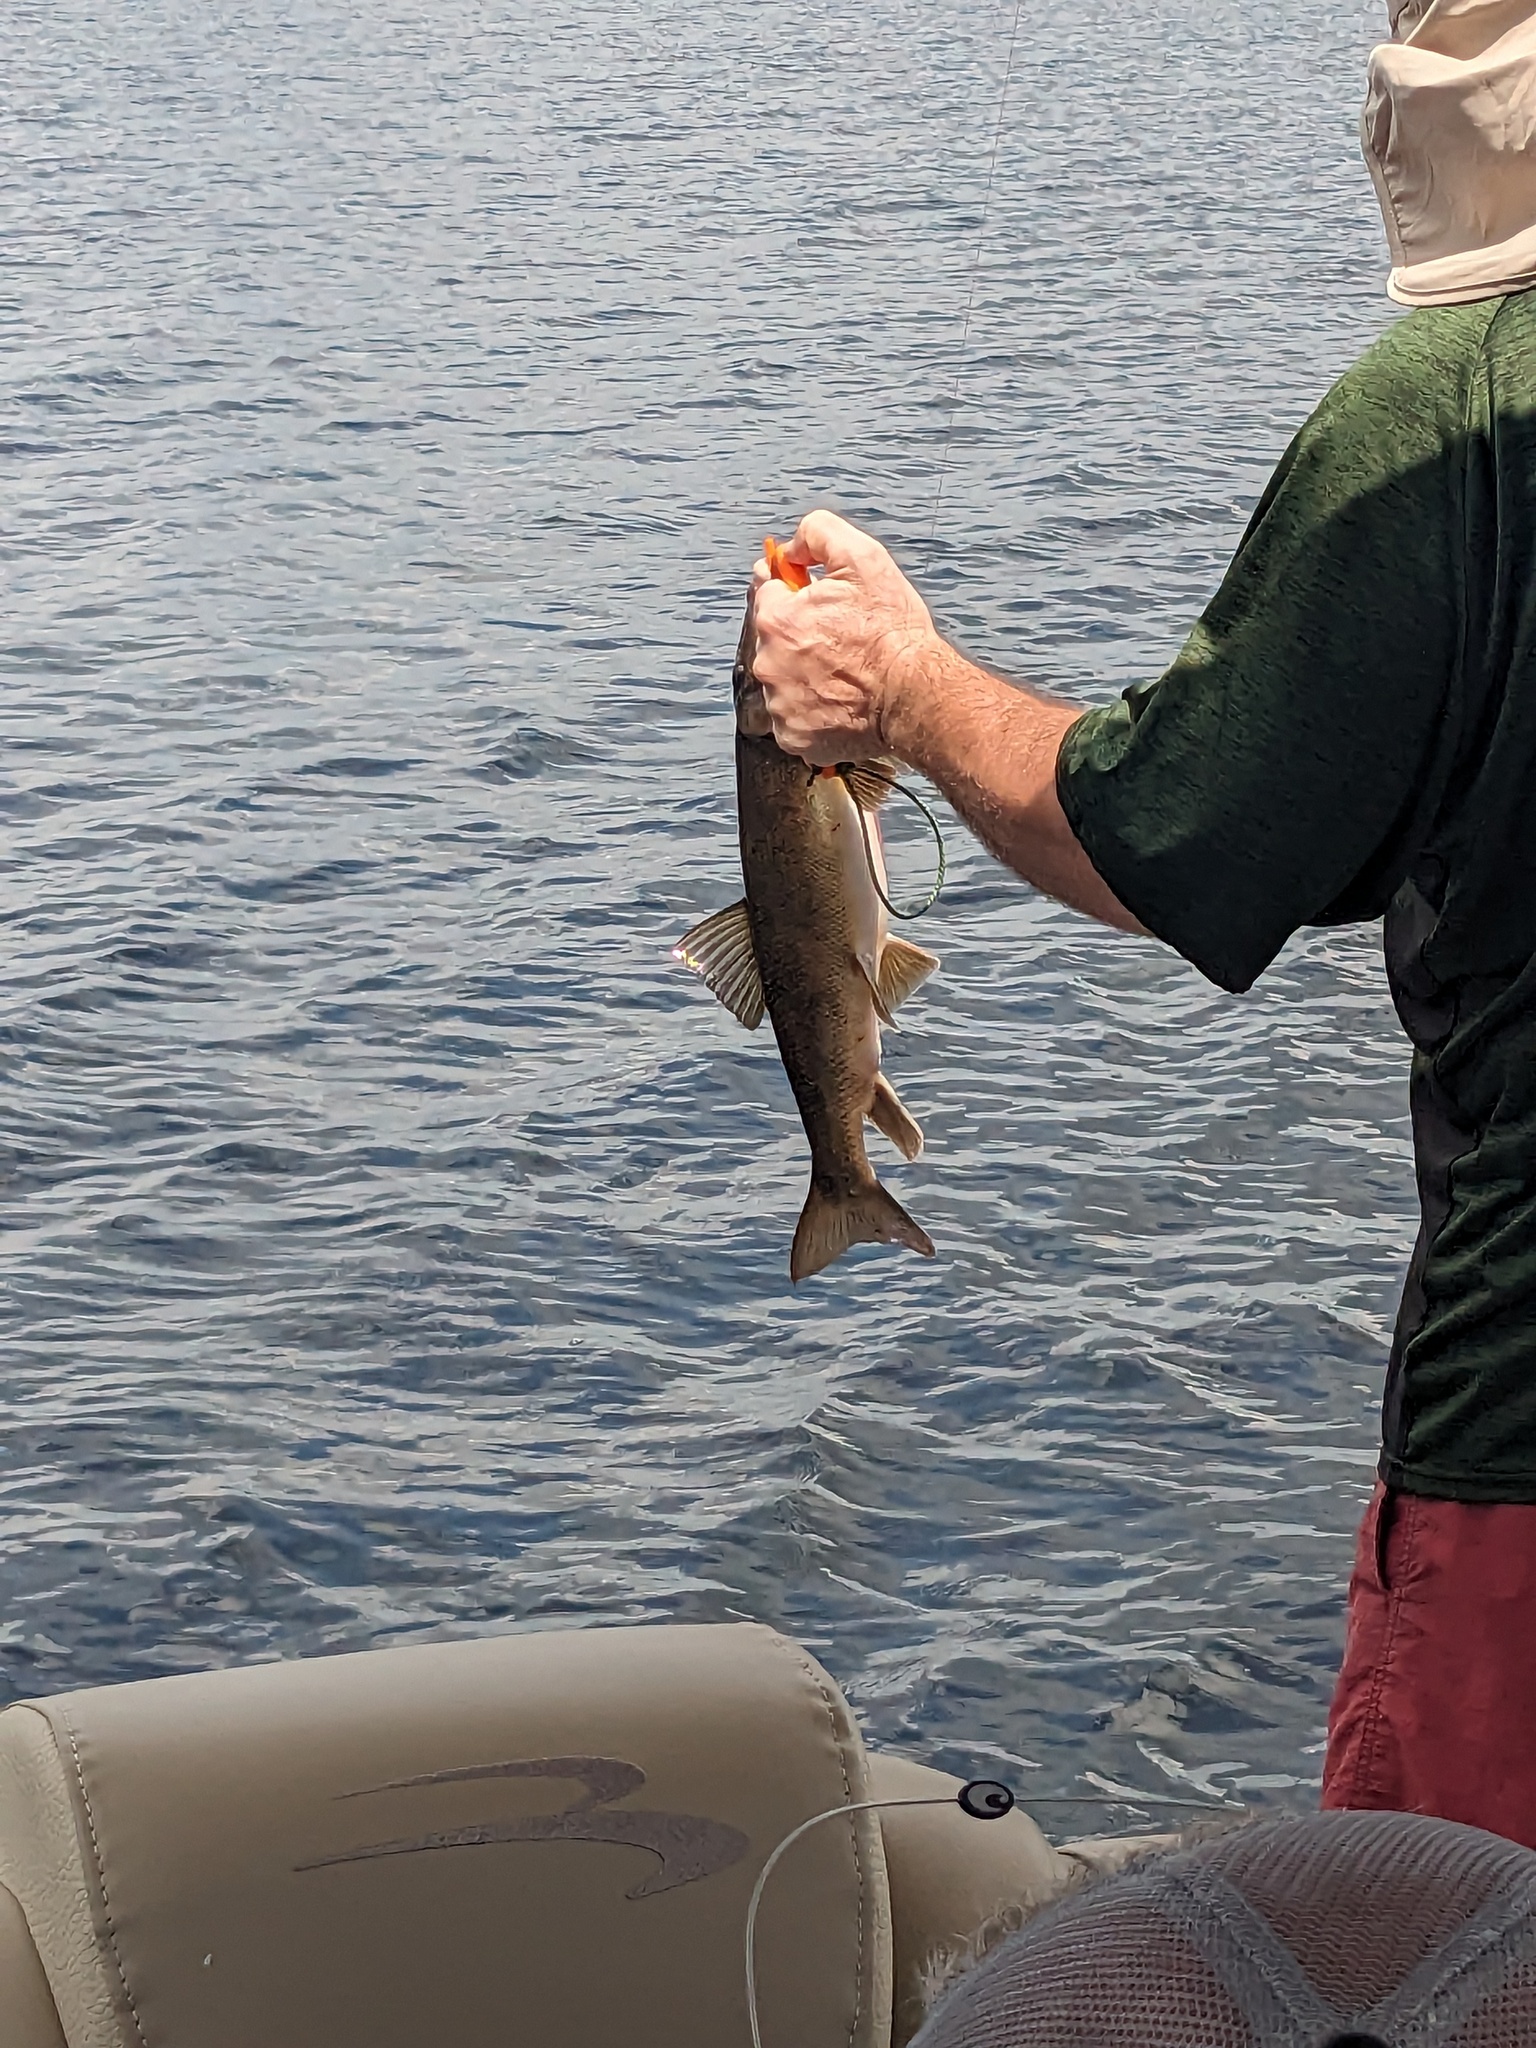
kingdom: Animalia
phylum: Chordata
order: Cypriniformes
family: Catostomidae
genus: Catostomus
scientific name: Catostomus commersonii
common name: White sucker
